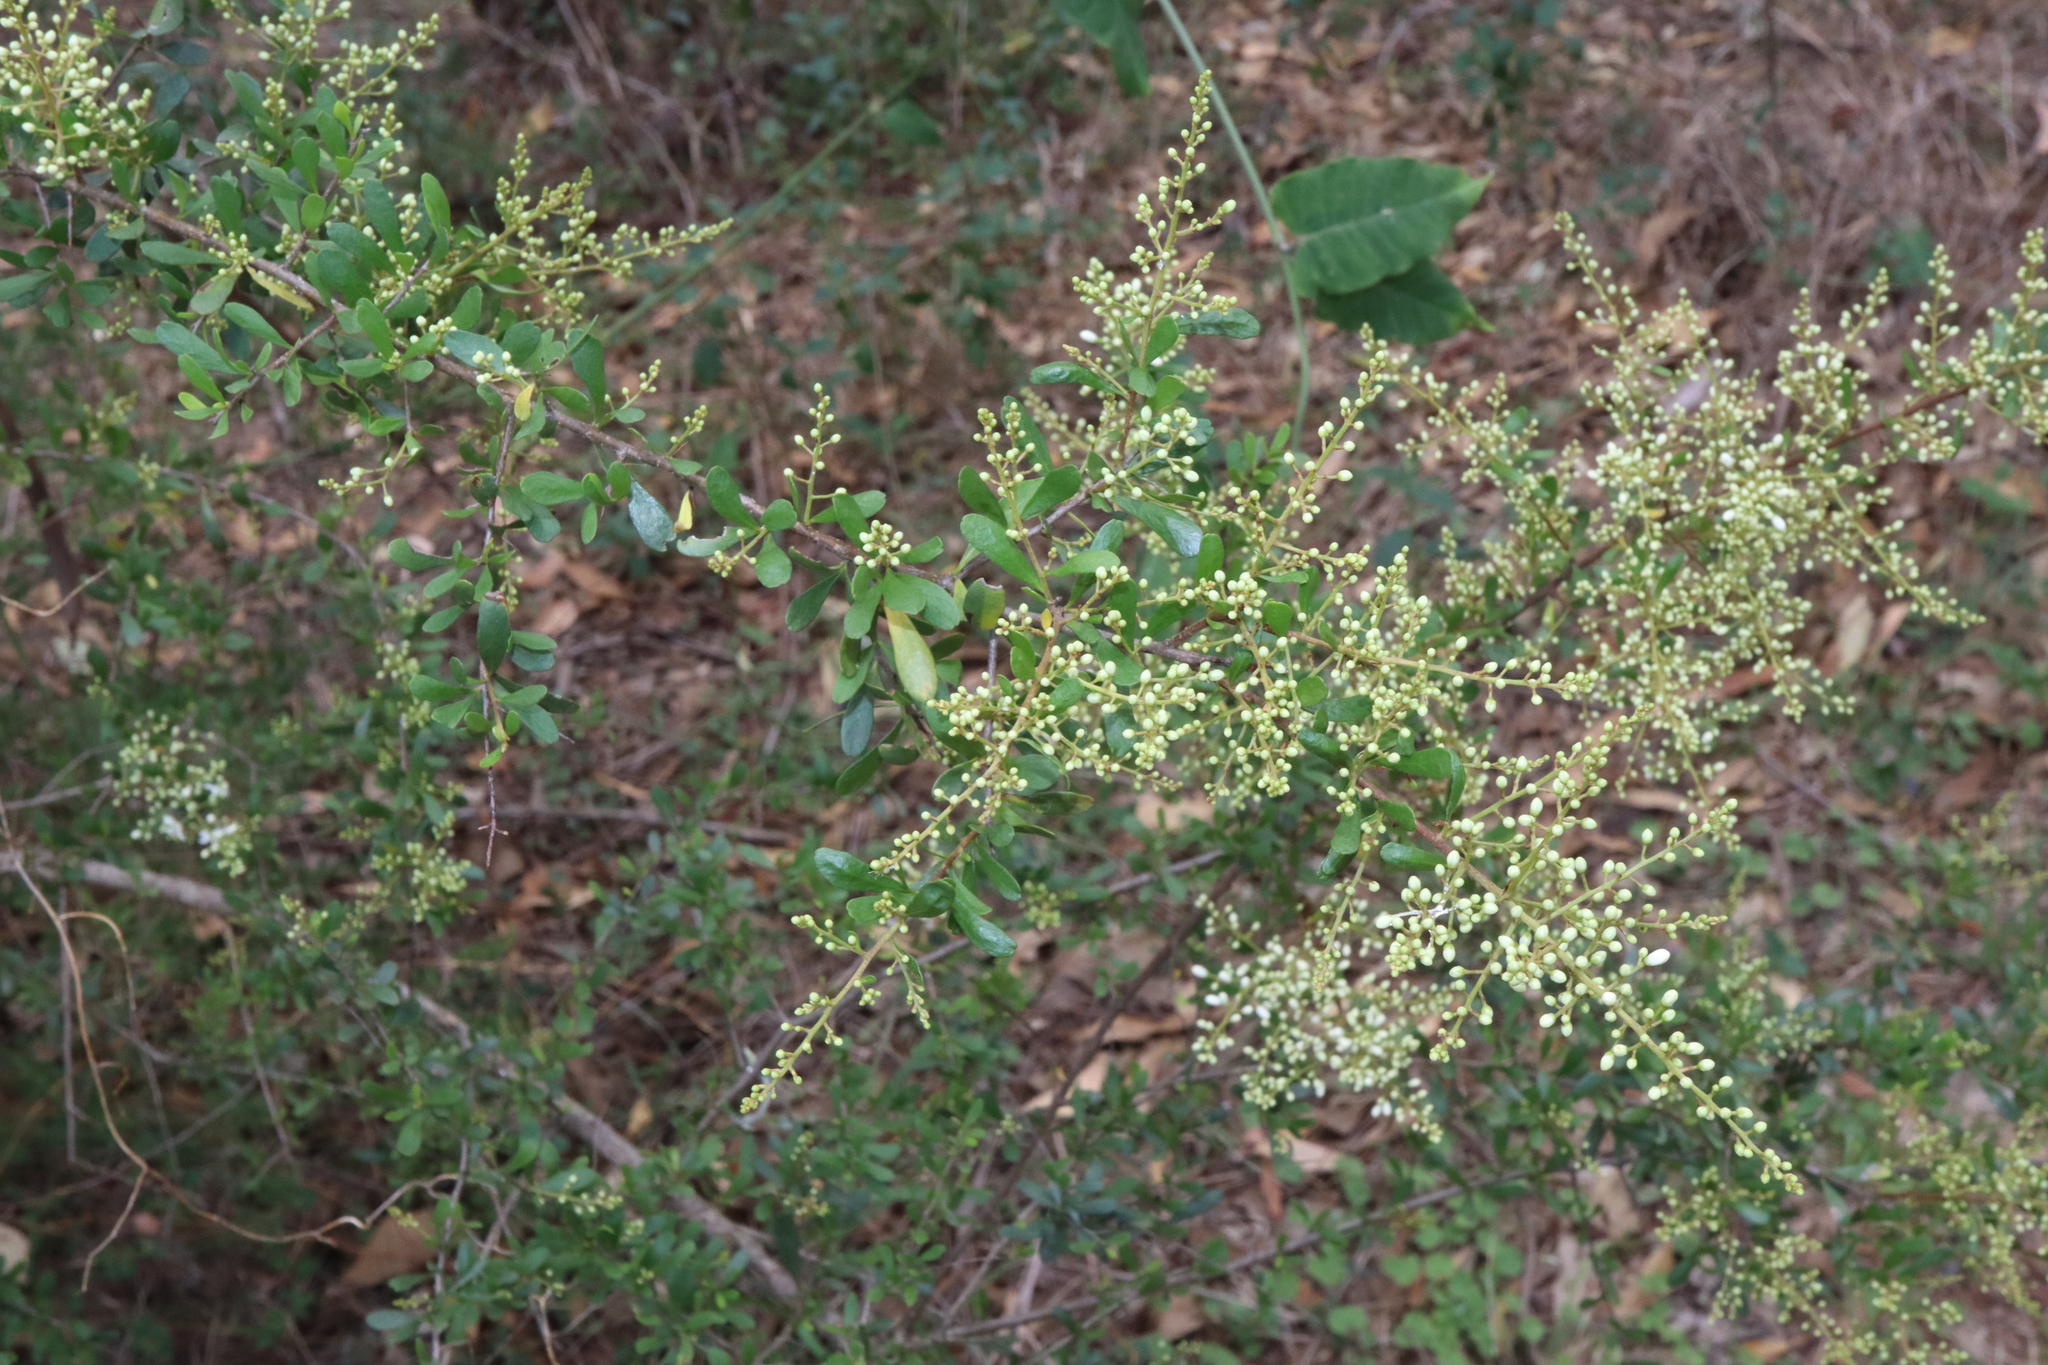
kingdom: Plantae
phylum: Tracheophyta
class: Magnoliopsida
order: Apiales
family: Pittosporaceae
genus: Bursaria
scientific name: Bursaria spinosa
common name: Australian blackthorn
